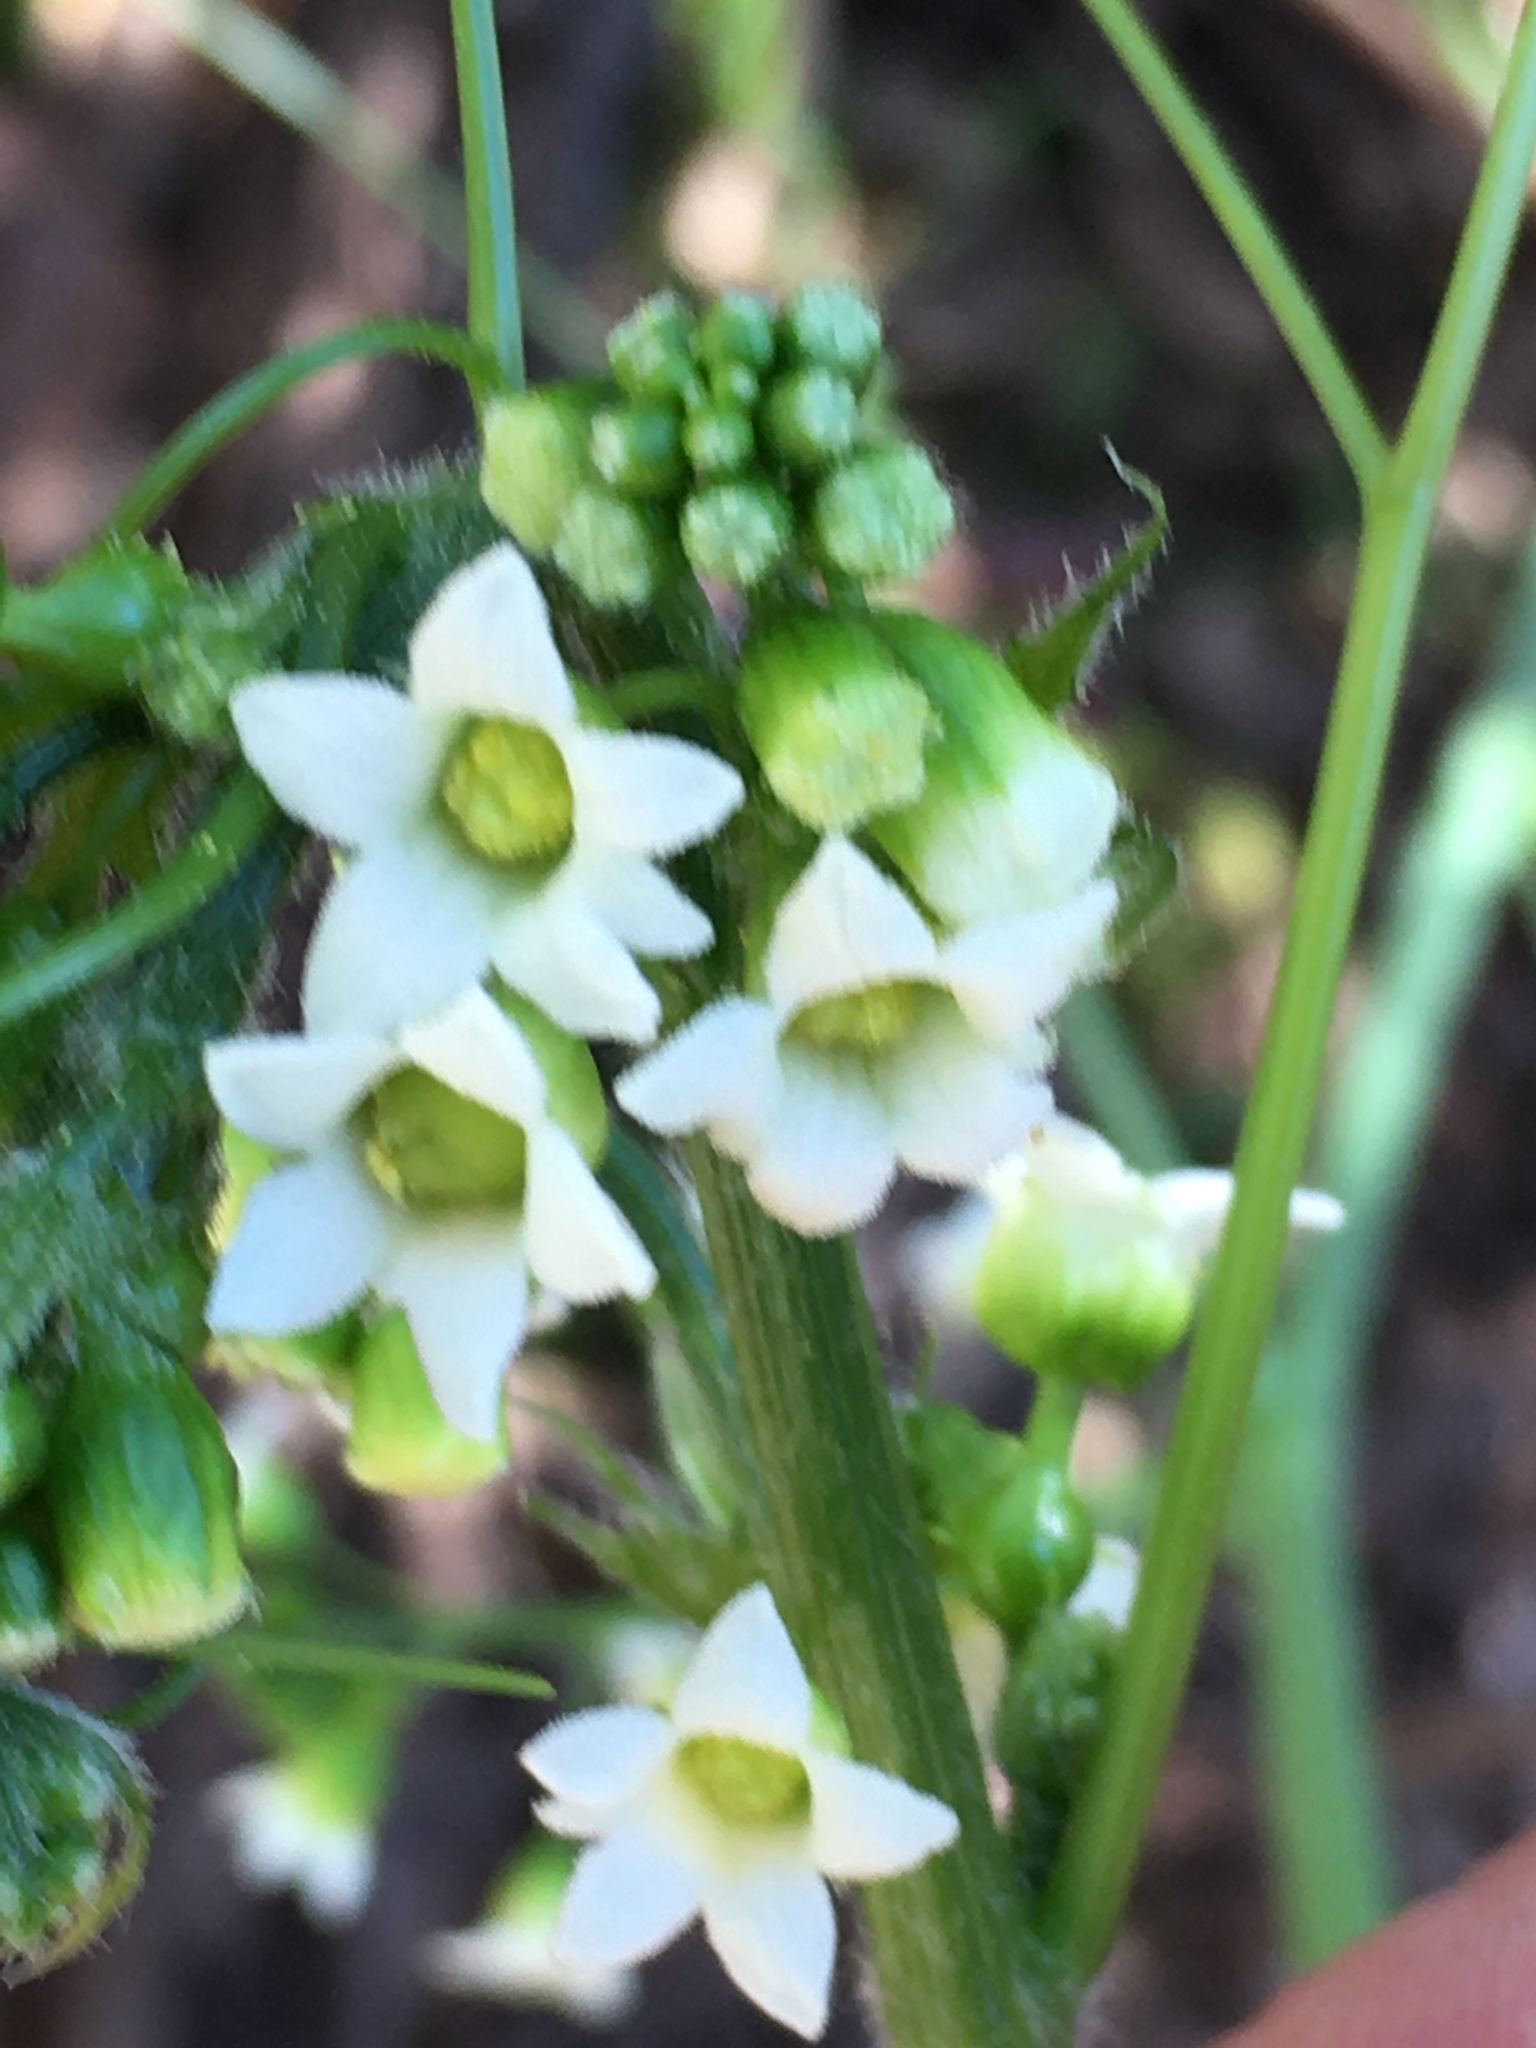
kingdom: Plantae
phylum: Tracheophyta
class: Magnoliopsida
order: Cucurbitales
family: Cucurbitaceae
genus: Marah
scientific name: Marah watsonii
